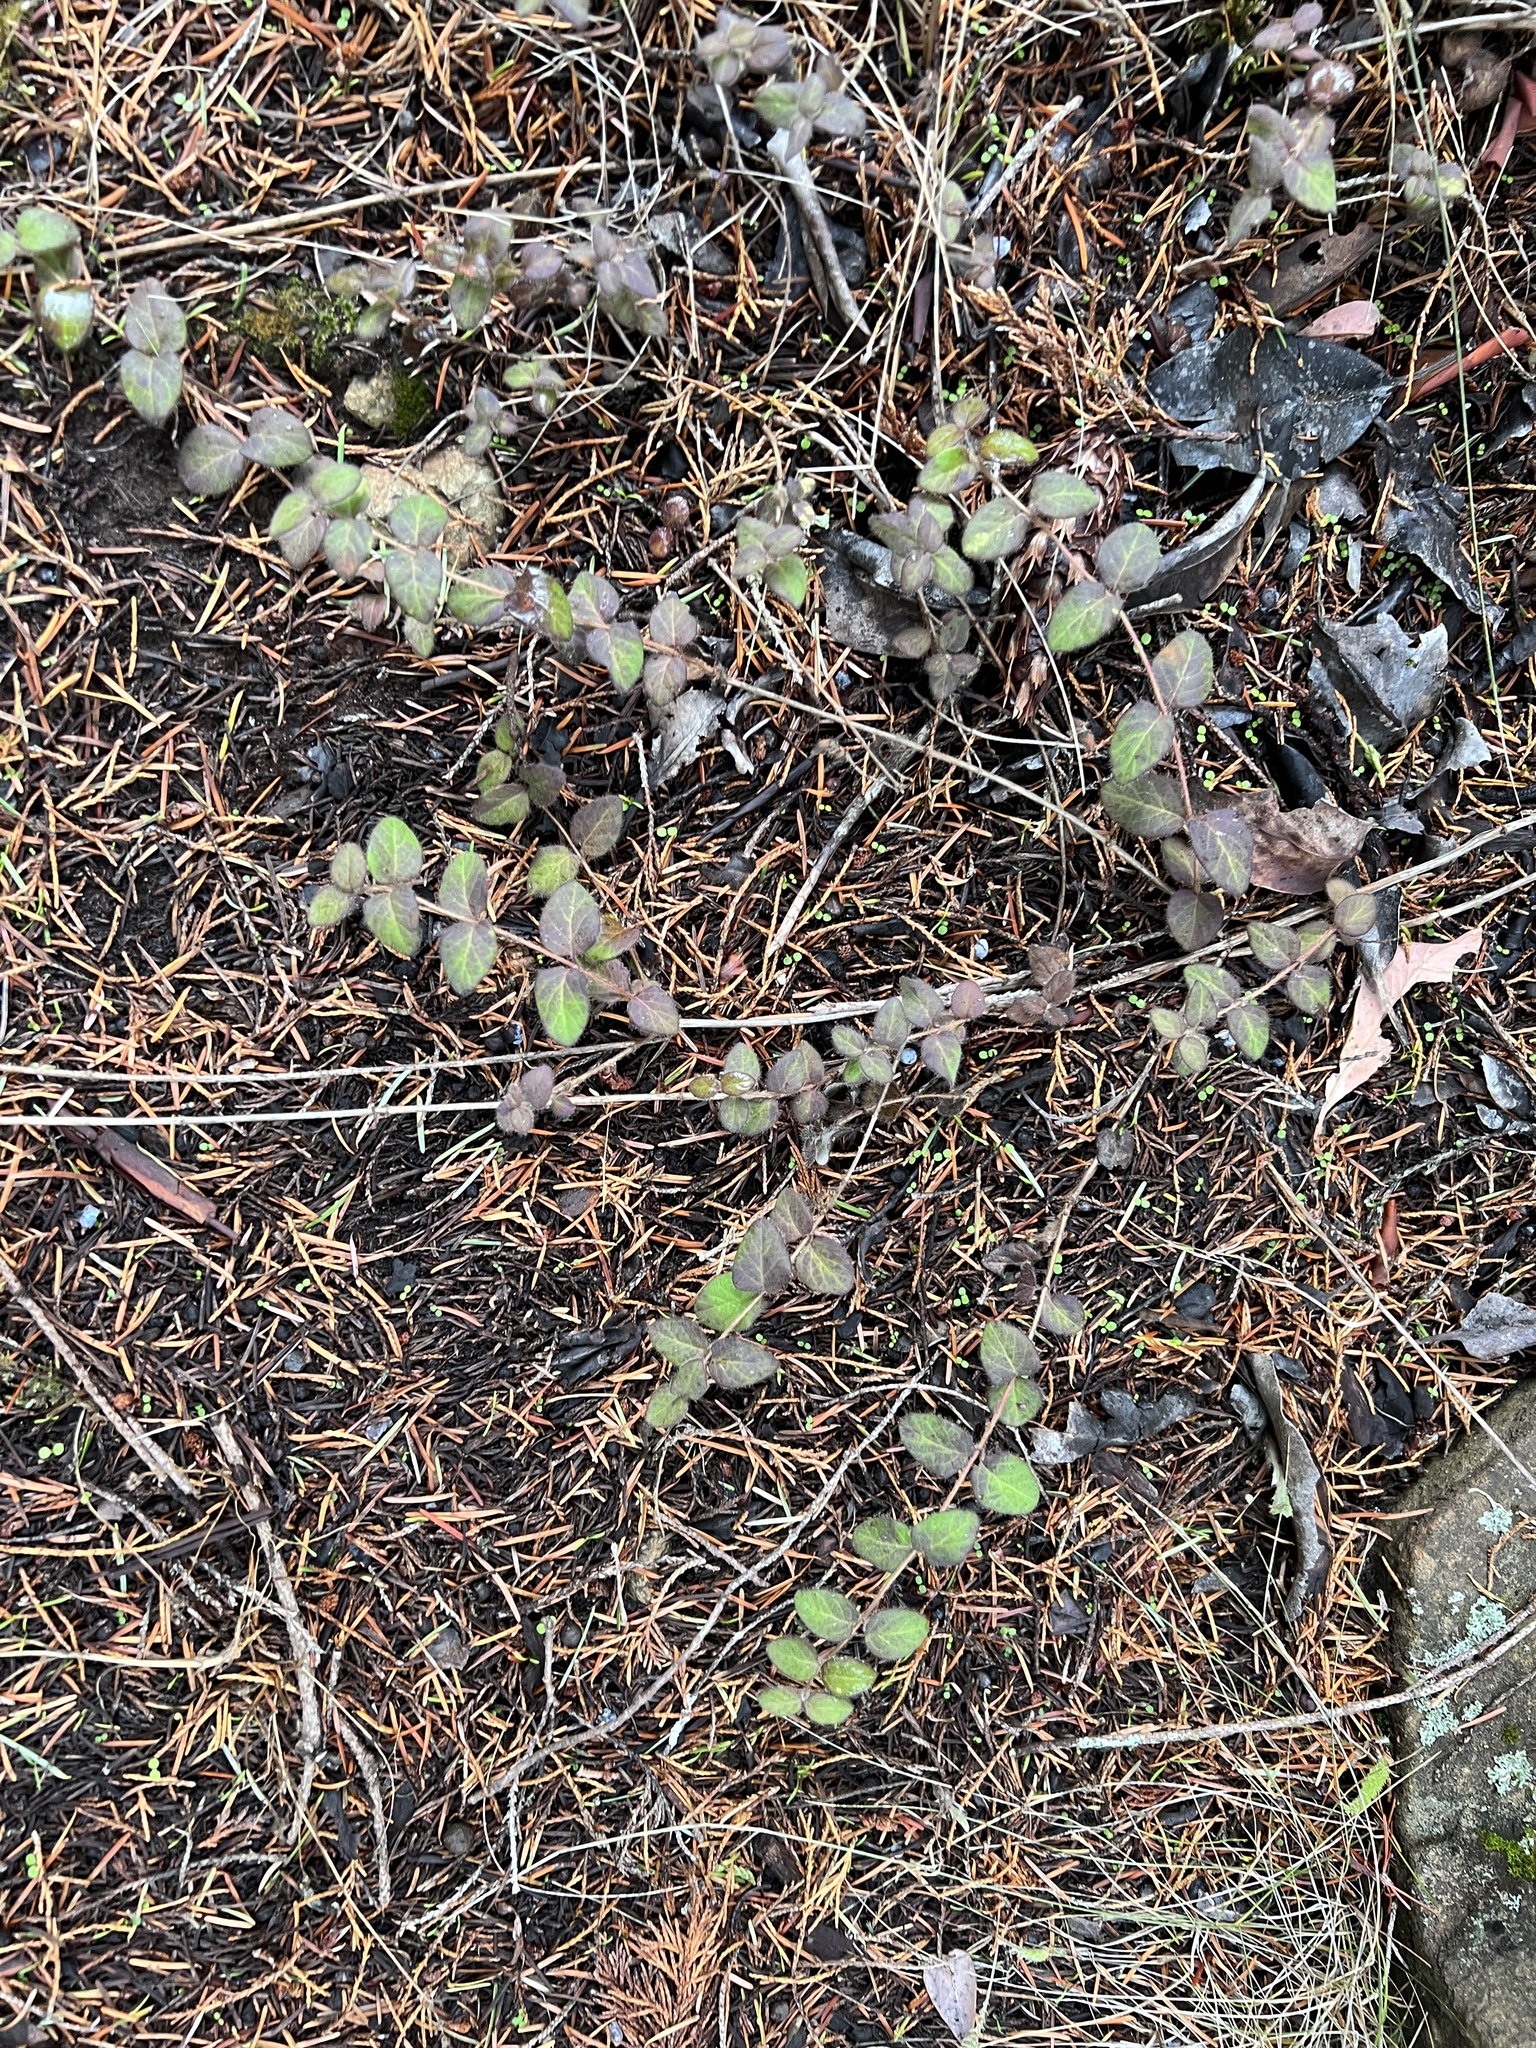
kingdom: Plantae
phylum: Tracheophyta
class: Magnoliopsida
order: Dipsacales
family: Caprifoliaceae
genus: Lonicera
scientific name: Lonicera hispidula
